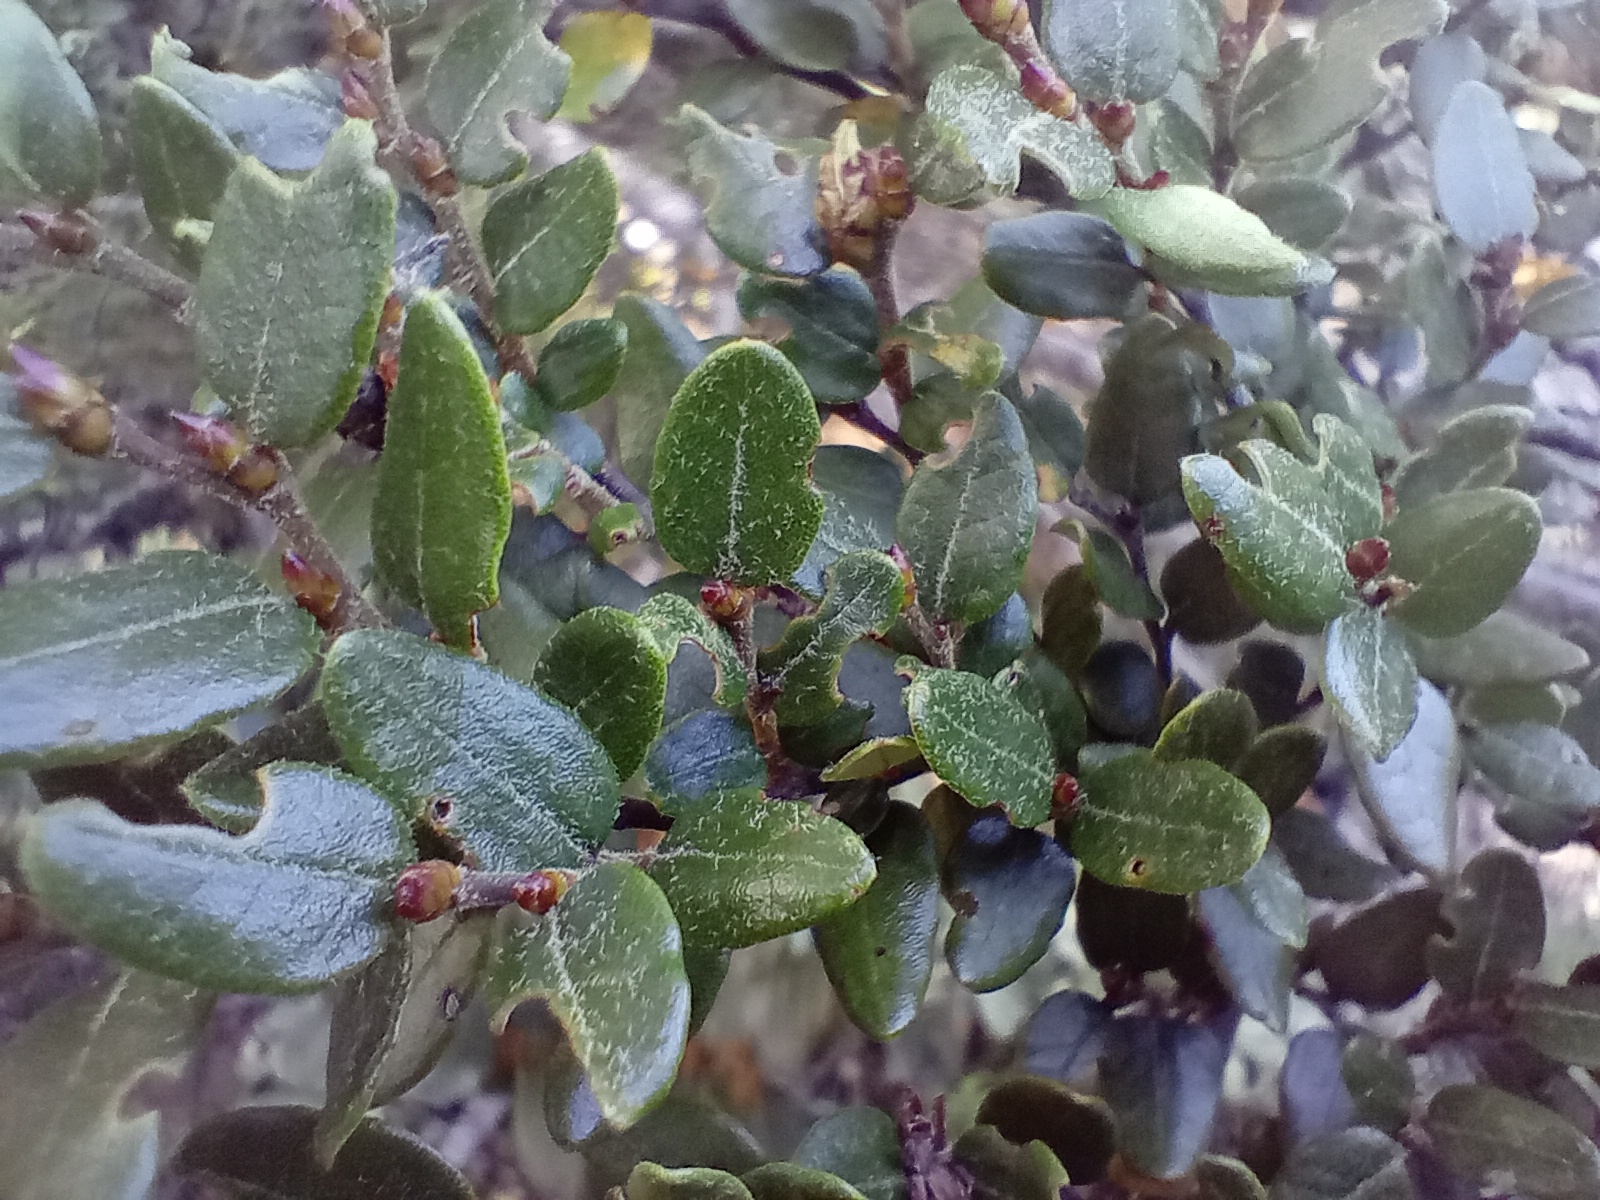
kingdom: Plantae
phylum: Tracheophyta
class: Magnoliopsida
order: Fagales
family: Nothofagaceae
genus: Nothofagus
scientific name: Nothofagus cliffortioides
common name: Mountain beech
